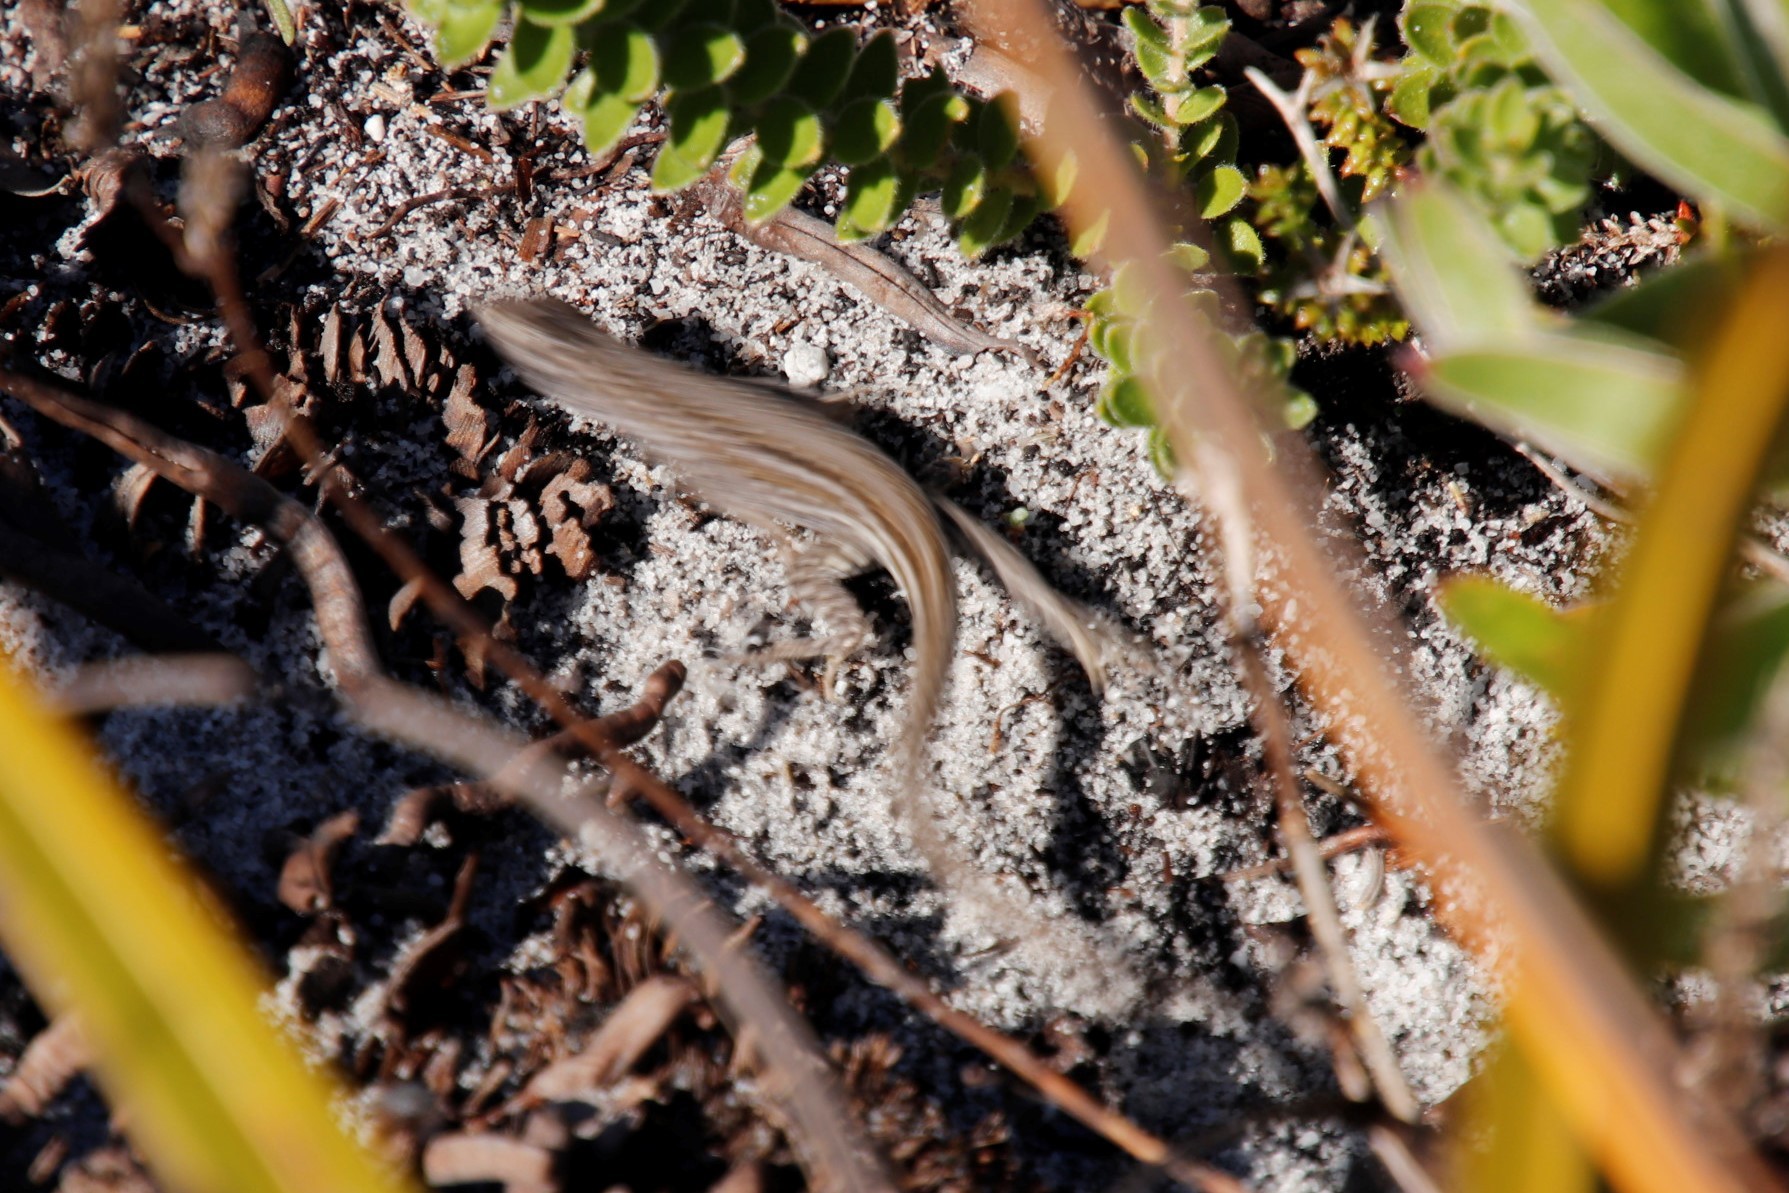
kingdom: Animalia
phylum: Chordata
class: Squamata
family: Scincidae
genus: Trachylepis
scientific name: Trachylepis capensis
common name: Cape skink
